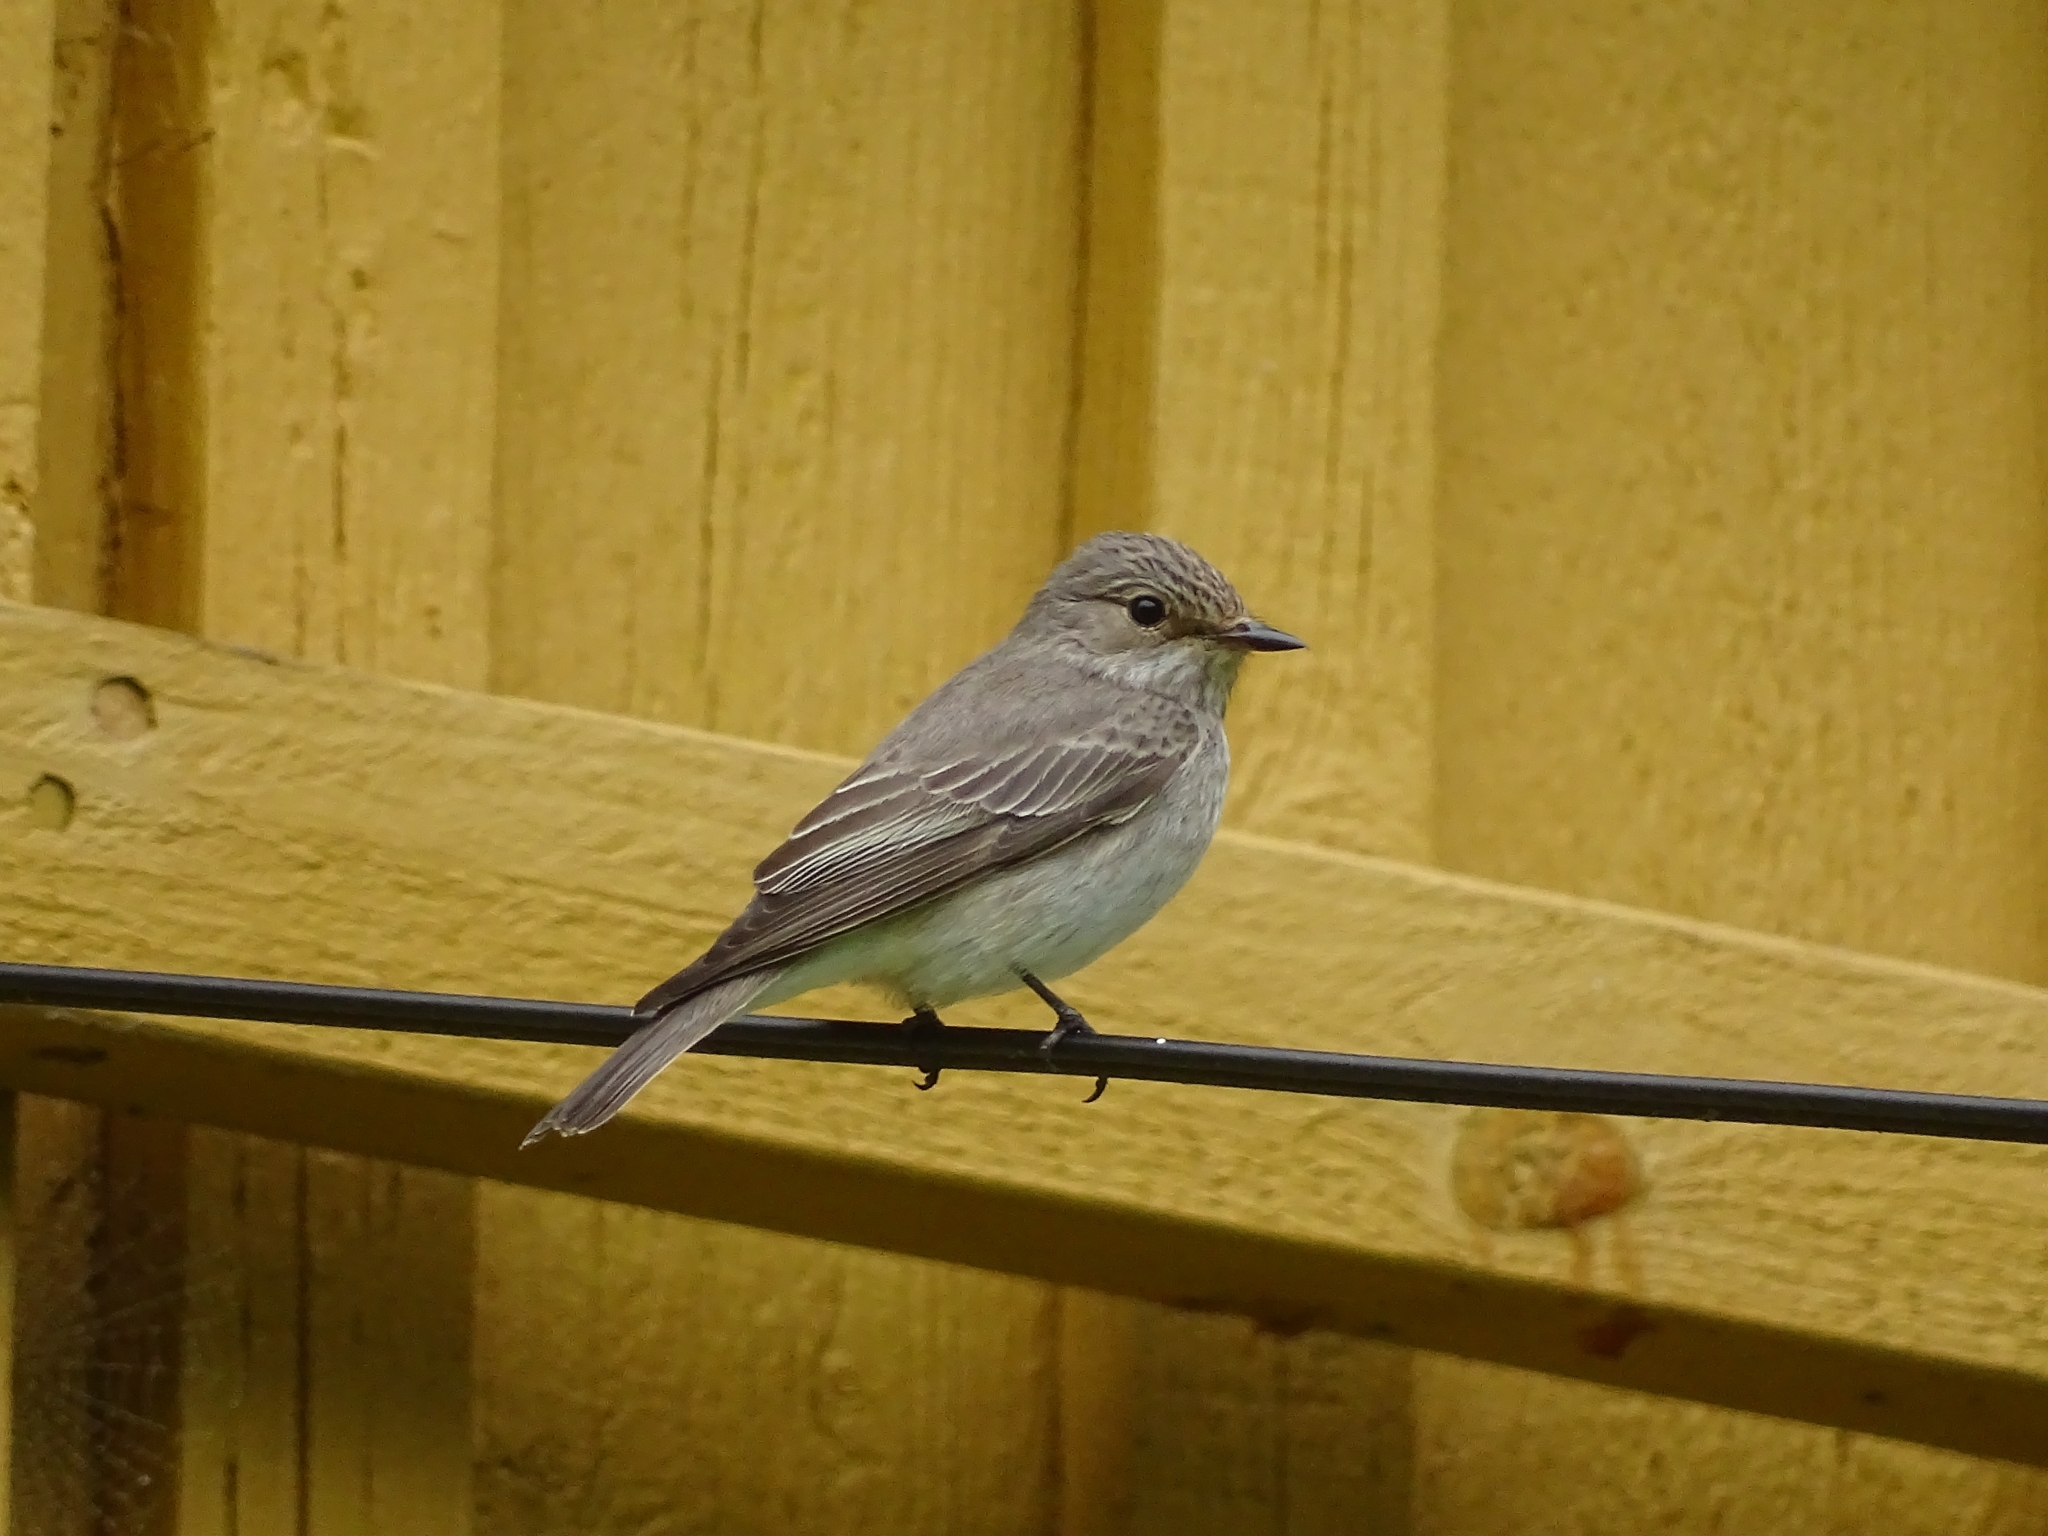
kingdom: Animalia
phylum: Chordata
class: Aves
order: Passeriformes
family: Muscicapidae
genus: Muscicapa
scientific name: Muscicapa striata
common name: Spotted flycatcher
